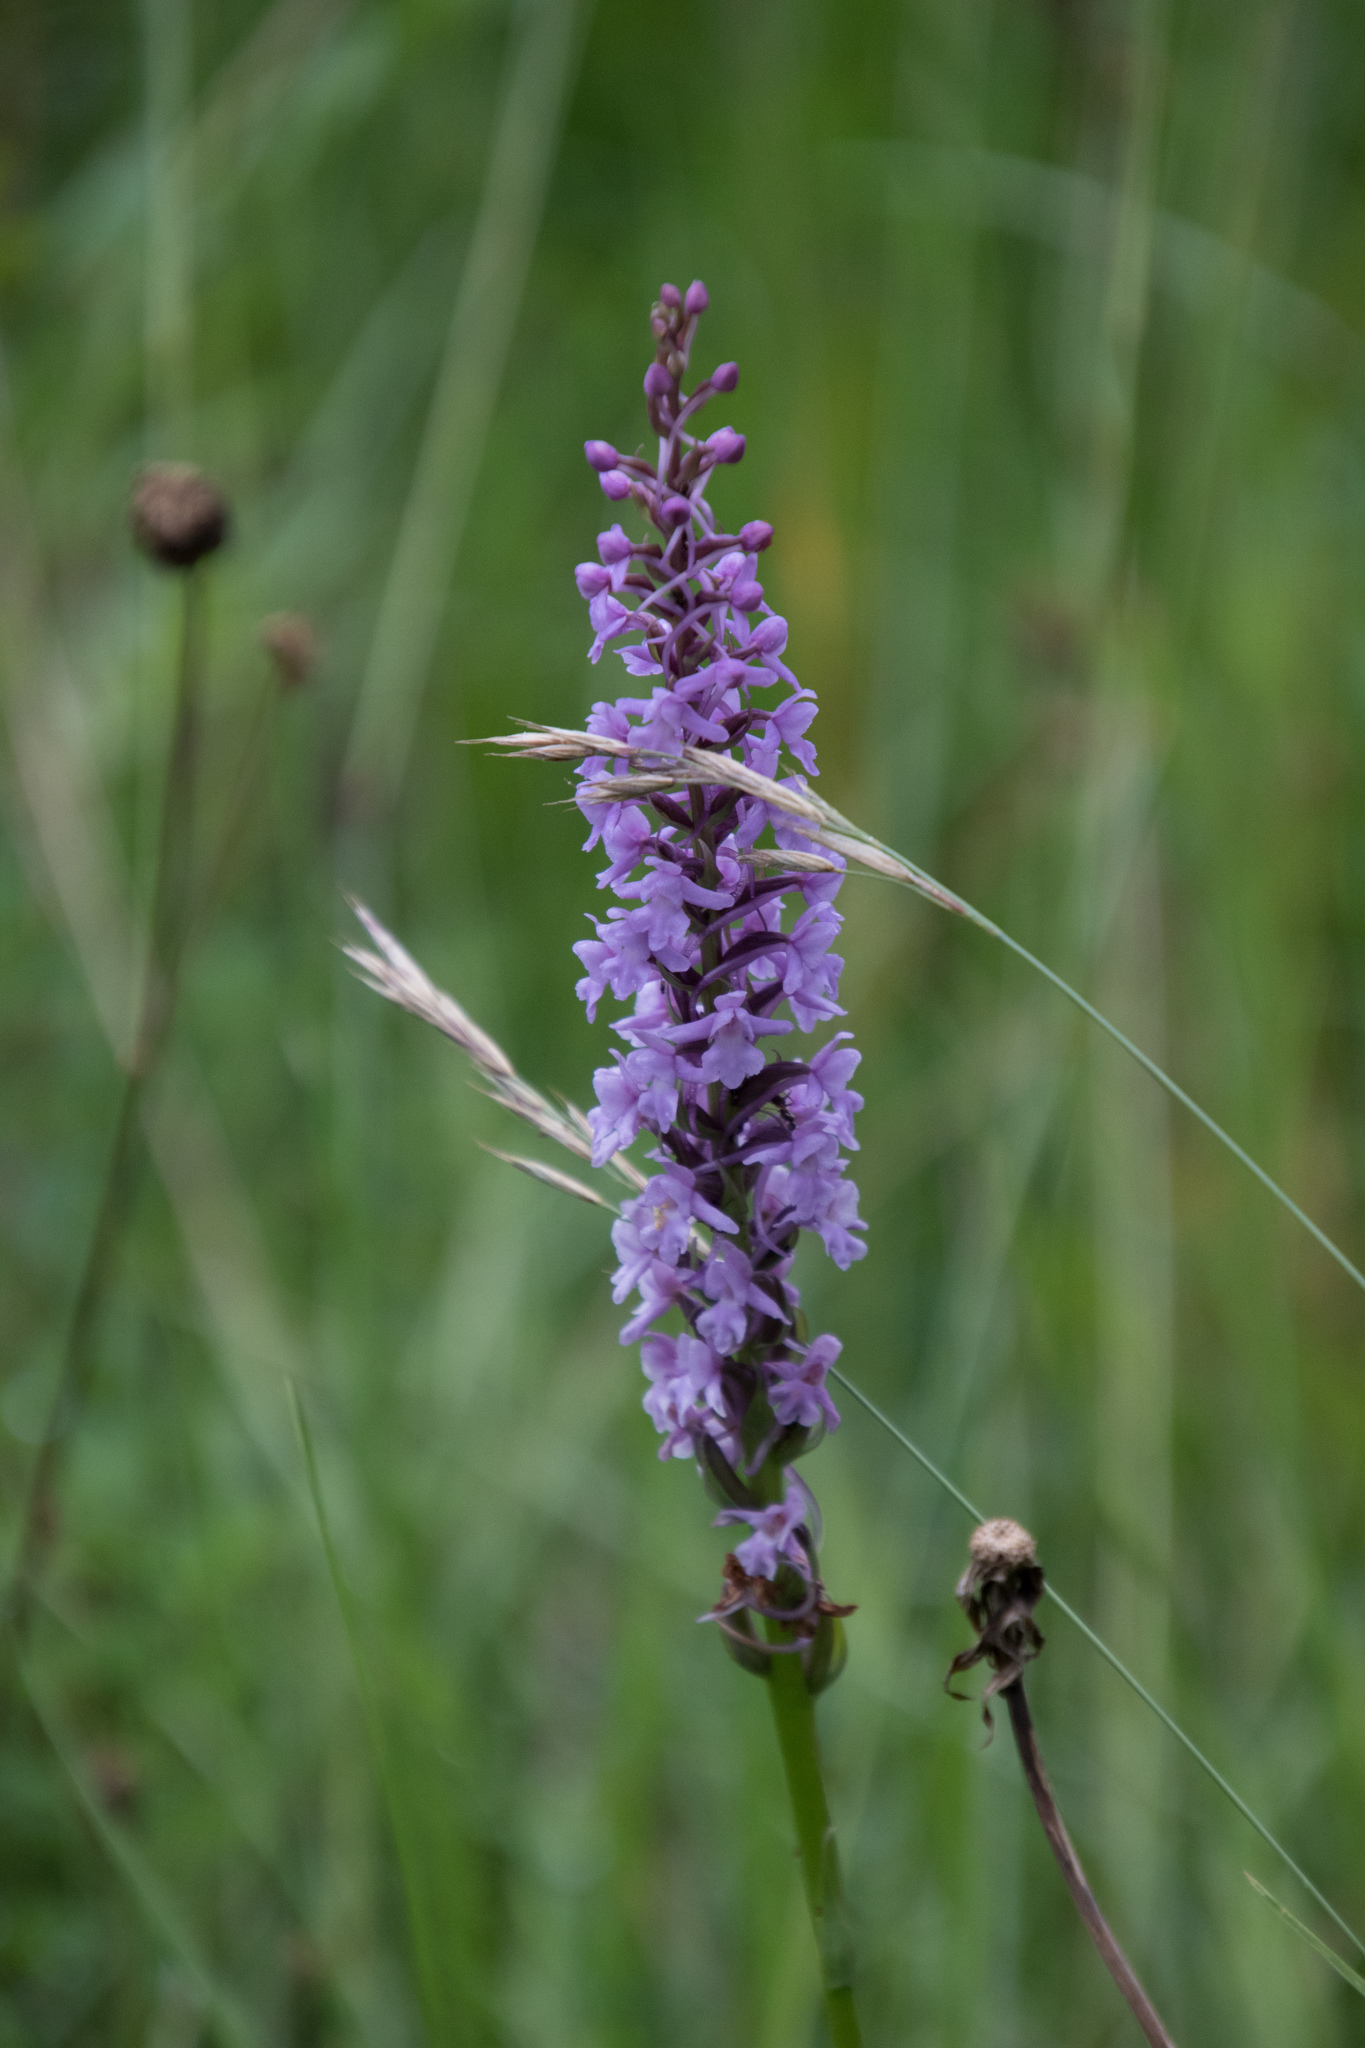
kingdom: Plantae
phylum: Tracheophyta
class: Liliopsida
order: Asparagales
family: Orchidaceae
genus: Gymnadenia
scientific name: Gymnadenia conopsea
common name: Fragrant orchid
